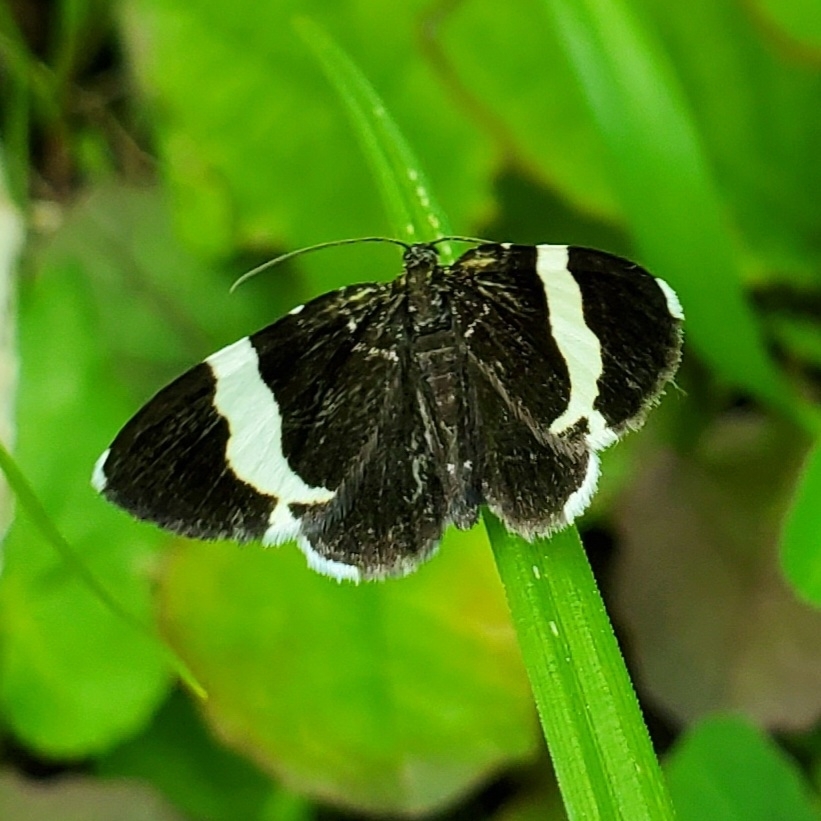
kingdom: Animalia
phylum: Arthropoda
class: Insecta
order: Lepidoptera
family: Geometridae
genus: Trichodezia
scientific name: Trichodezia albovittata
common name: White striped black
